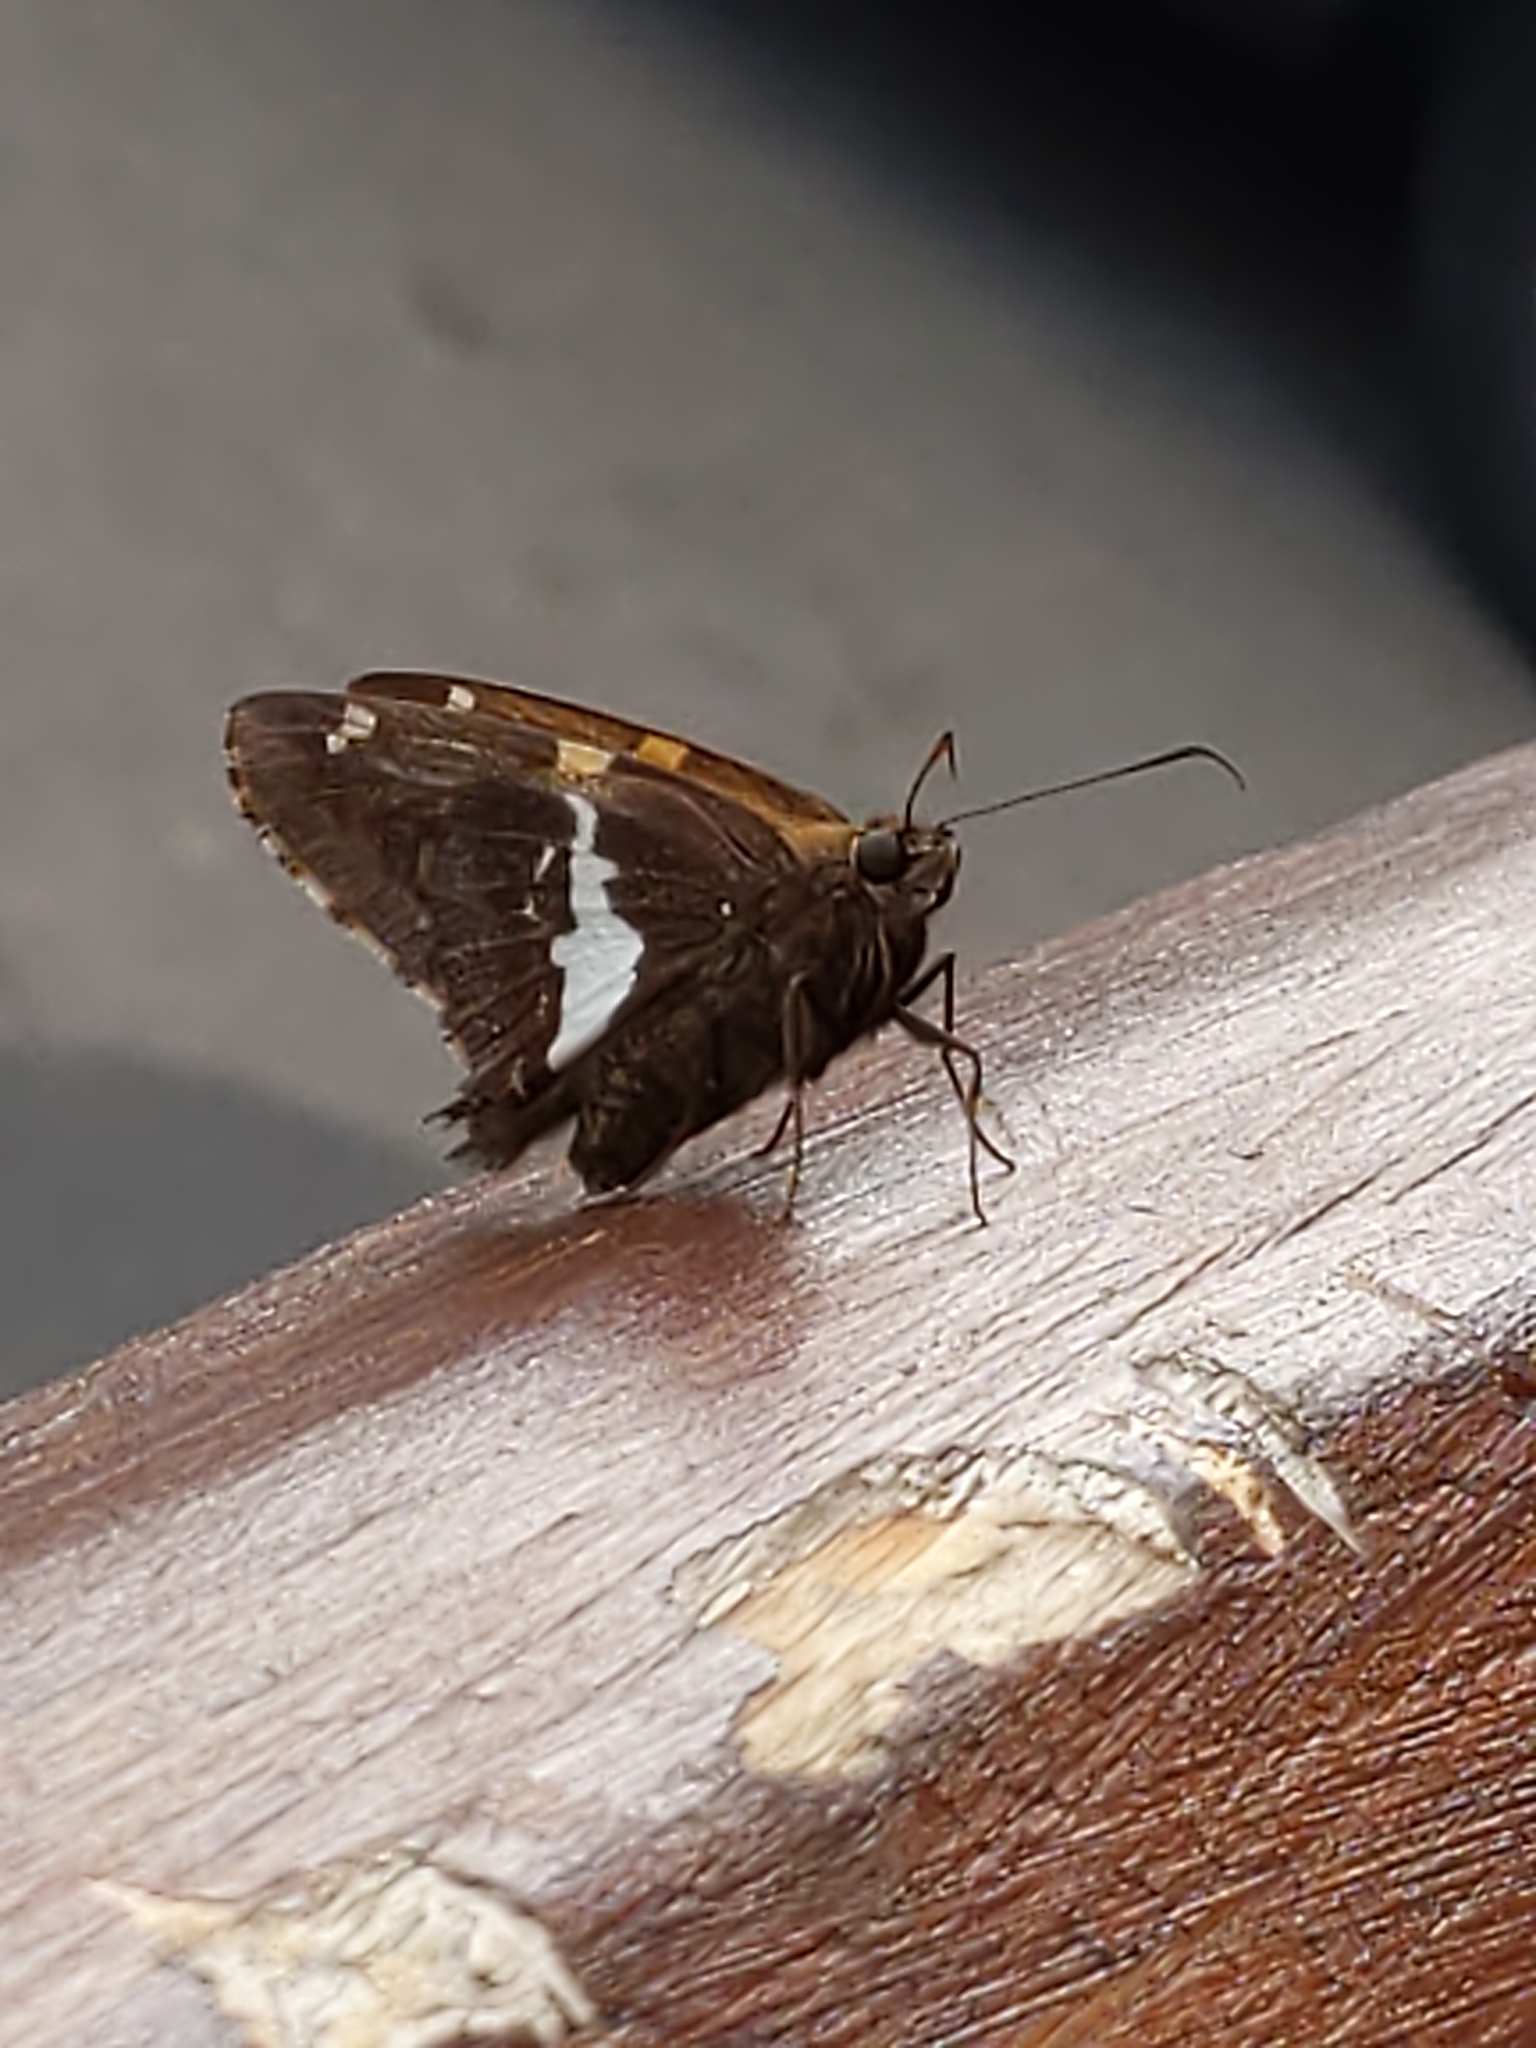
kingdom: Animalia
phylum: Arthropoda
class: Insecta
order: Lepidoptera
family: Hesperiidae
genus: Epargyreus
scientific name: Epargyreus clarus
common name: Silver-spotted skipper
